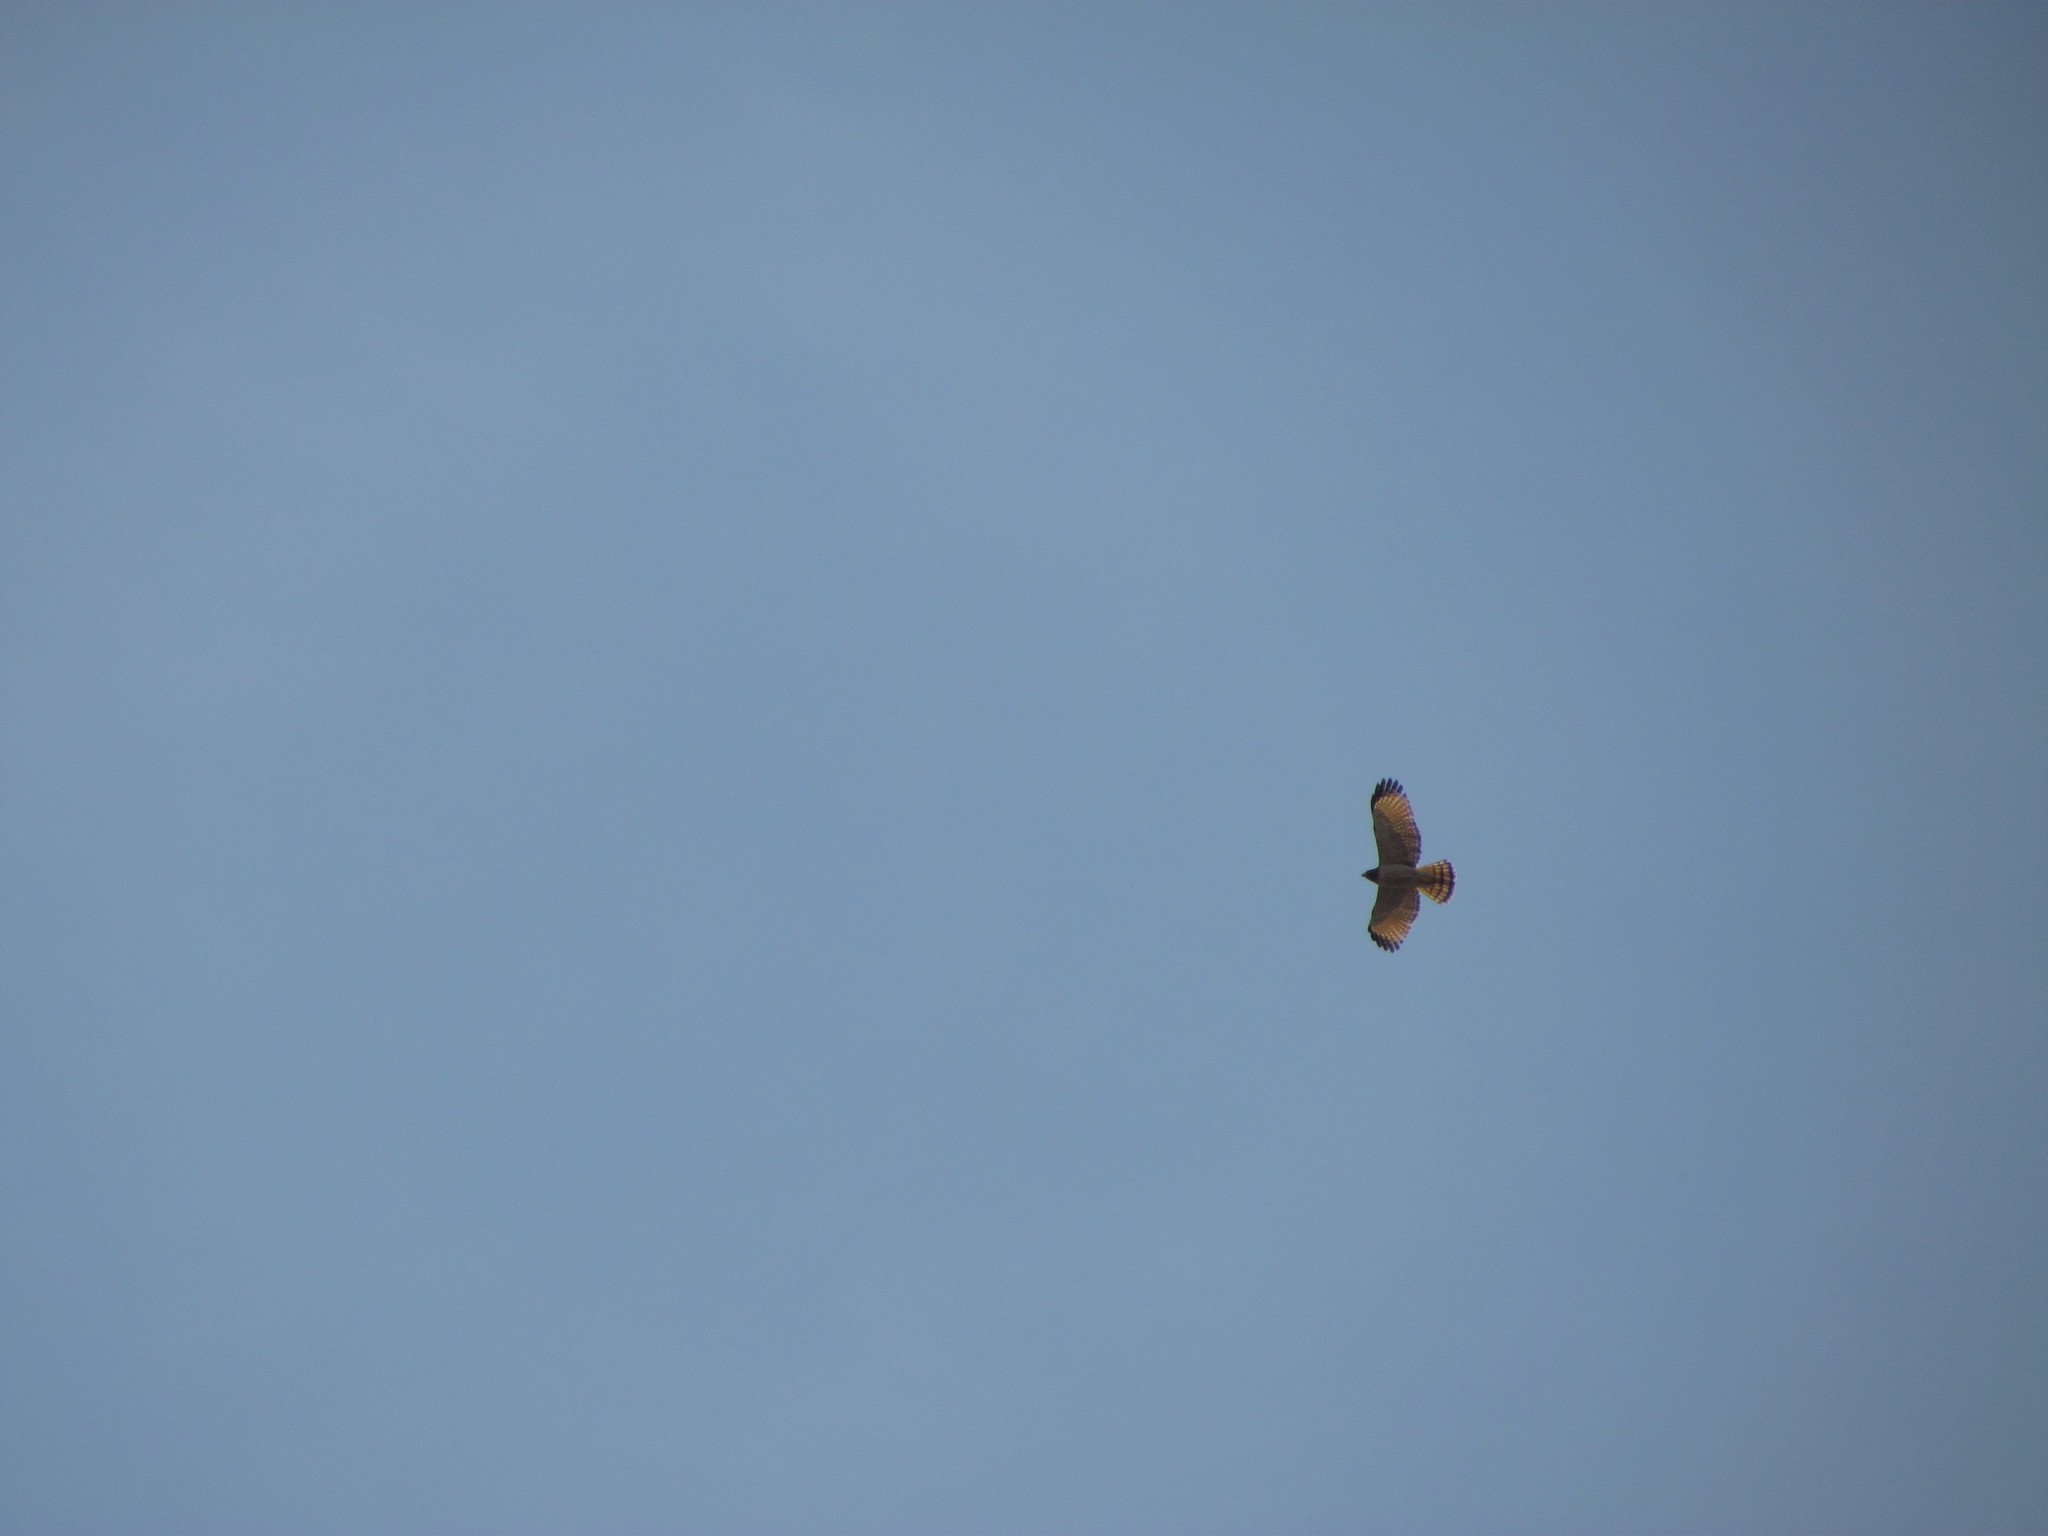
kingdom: Animalia
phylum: Chordata
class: Aves
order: Accipitriformes
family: Accipitridae
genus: Rupornis
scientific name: Rupornis magnirostris
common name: Roadside hawk
